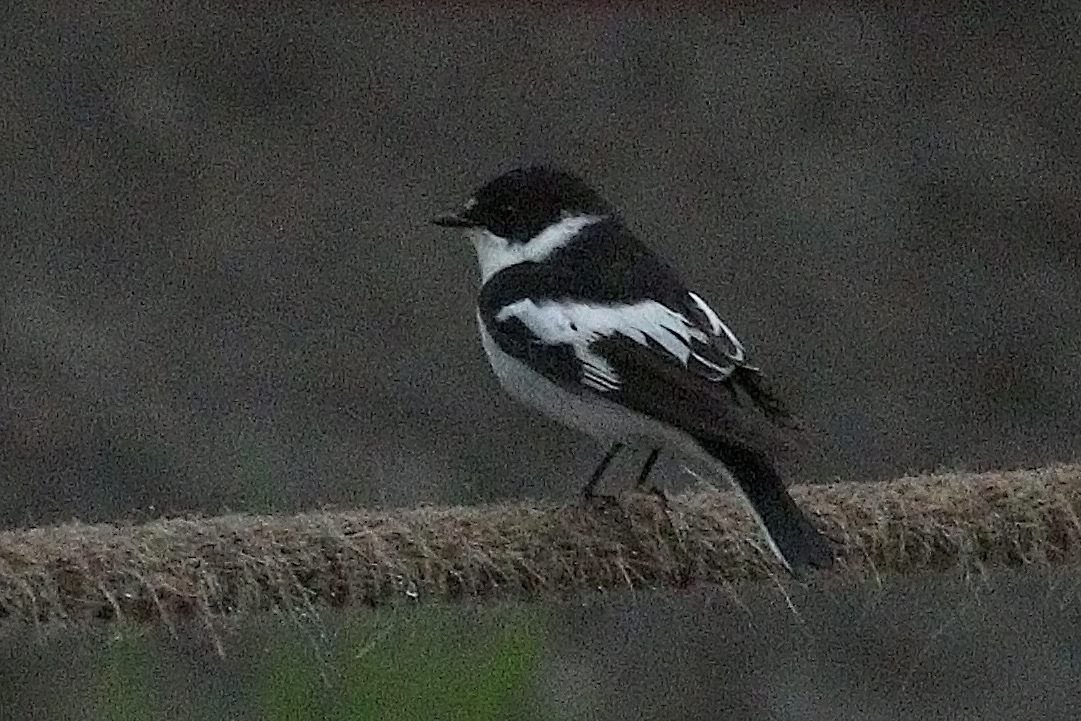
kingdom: Animalia
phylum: Chordata
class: Aves
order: Passeriformes
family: Muscicapidae
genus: Ficedula
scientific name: Ficedula semitorquata
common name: Semicollared flycatcher
